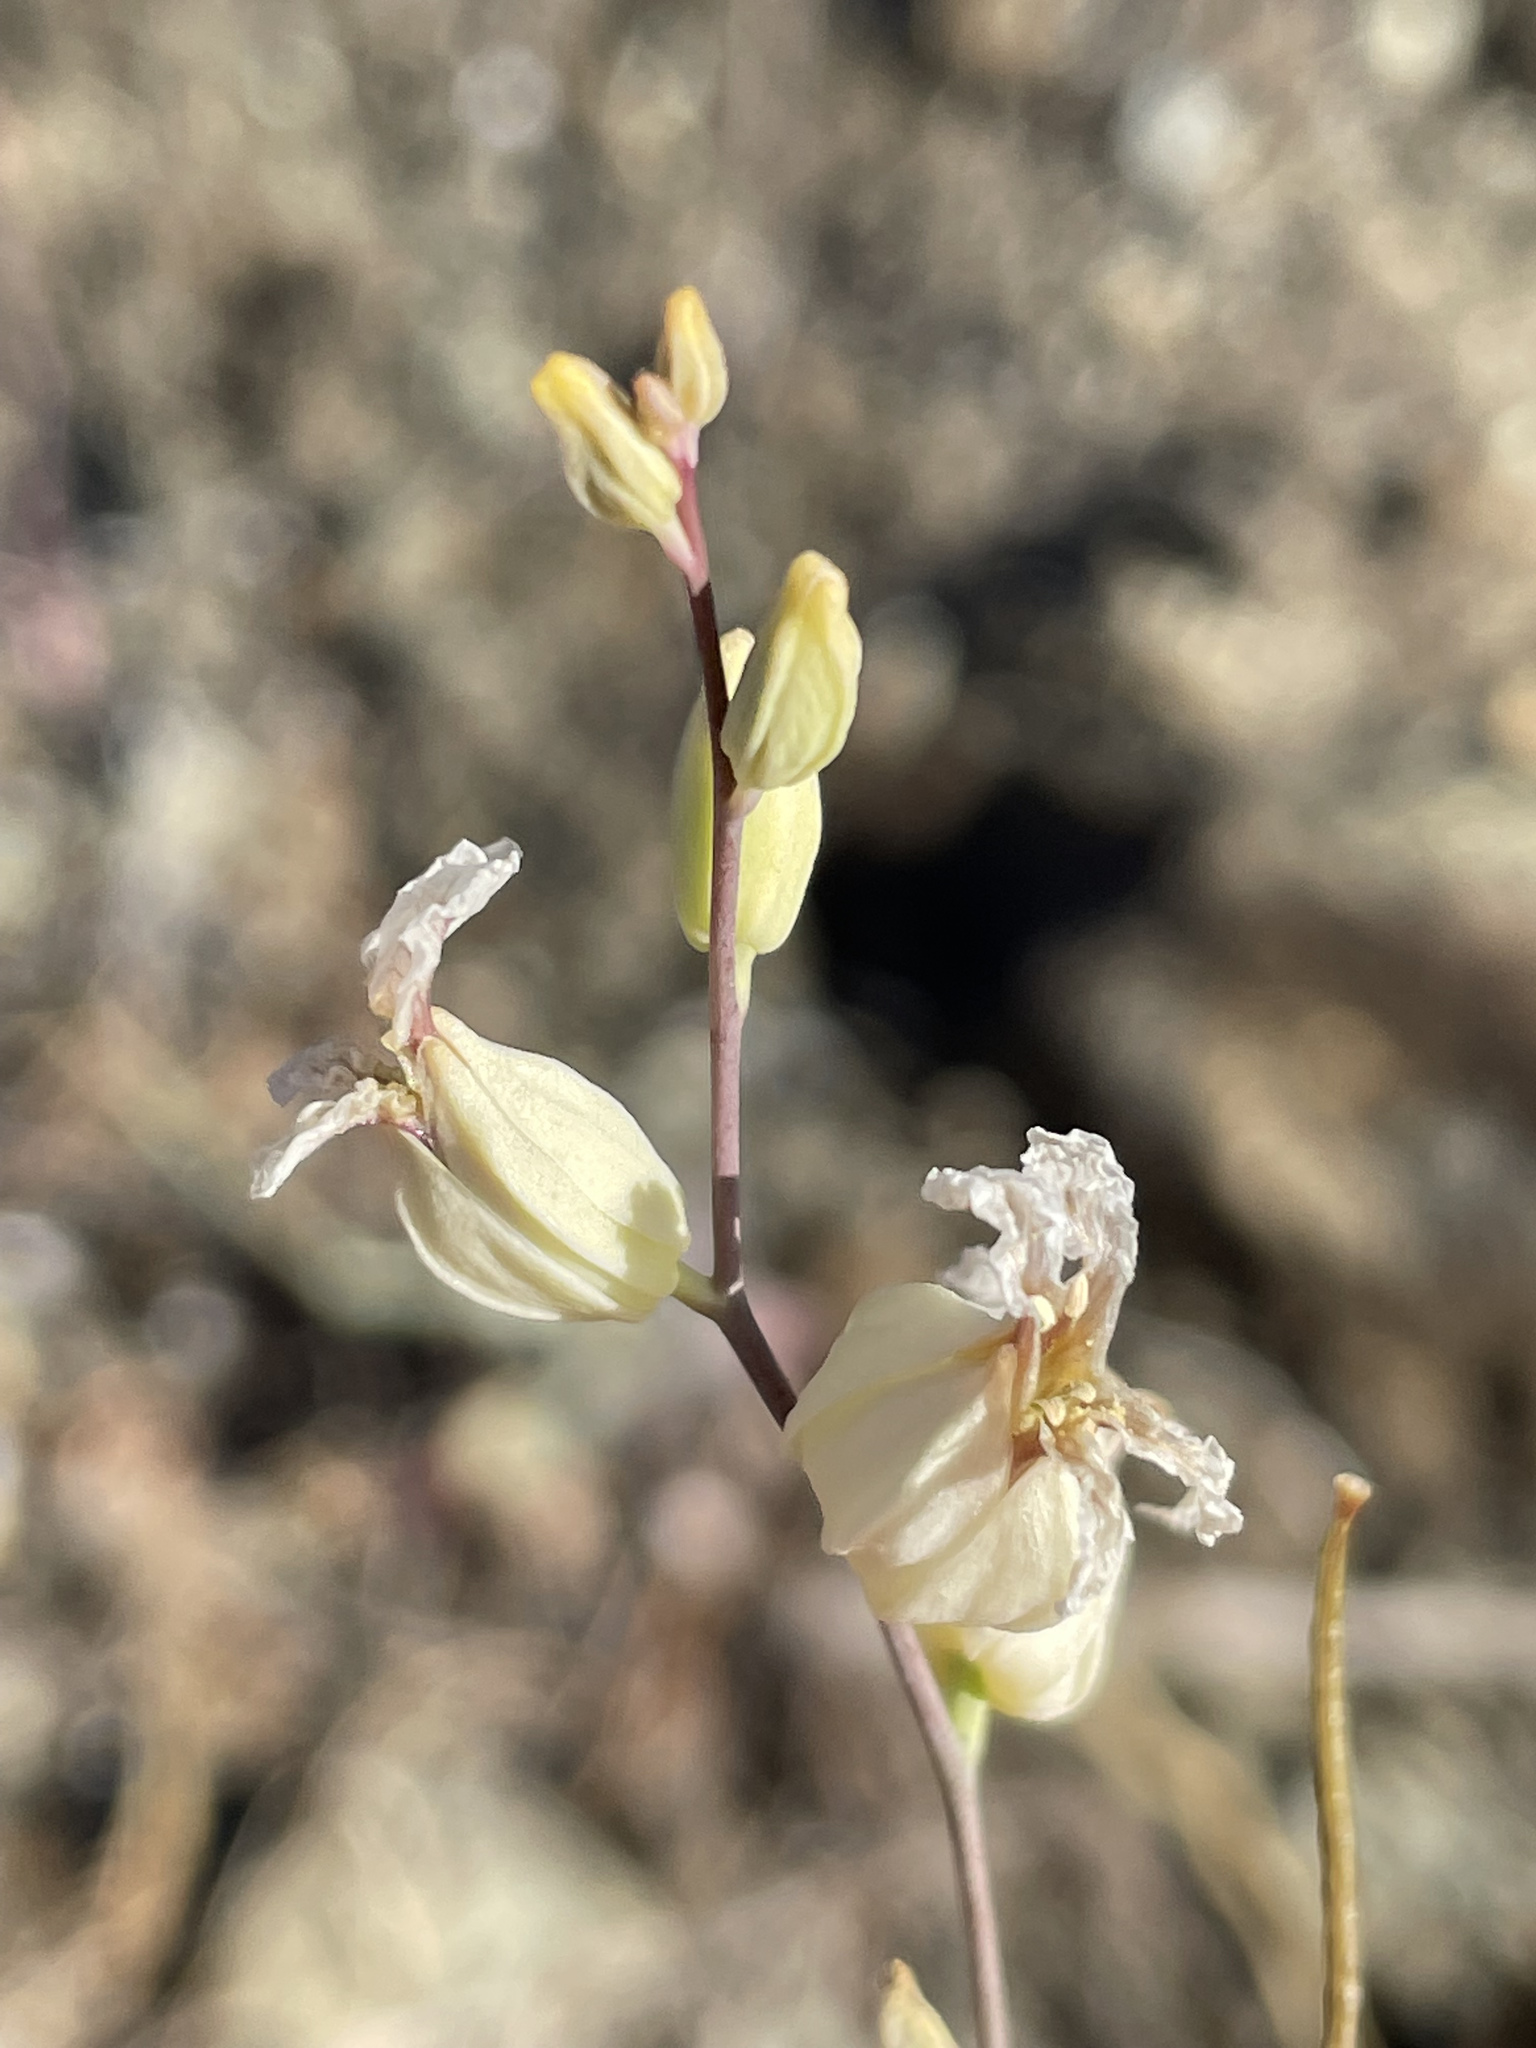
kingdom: Plantae
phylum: Tracheophyta
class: Magnoliopsida
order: Brassicales
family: Brassicaceae
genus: Streptanthus
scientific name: Streptanthus glandulosus
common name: Jewel-flower
